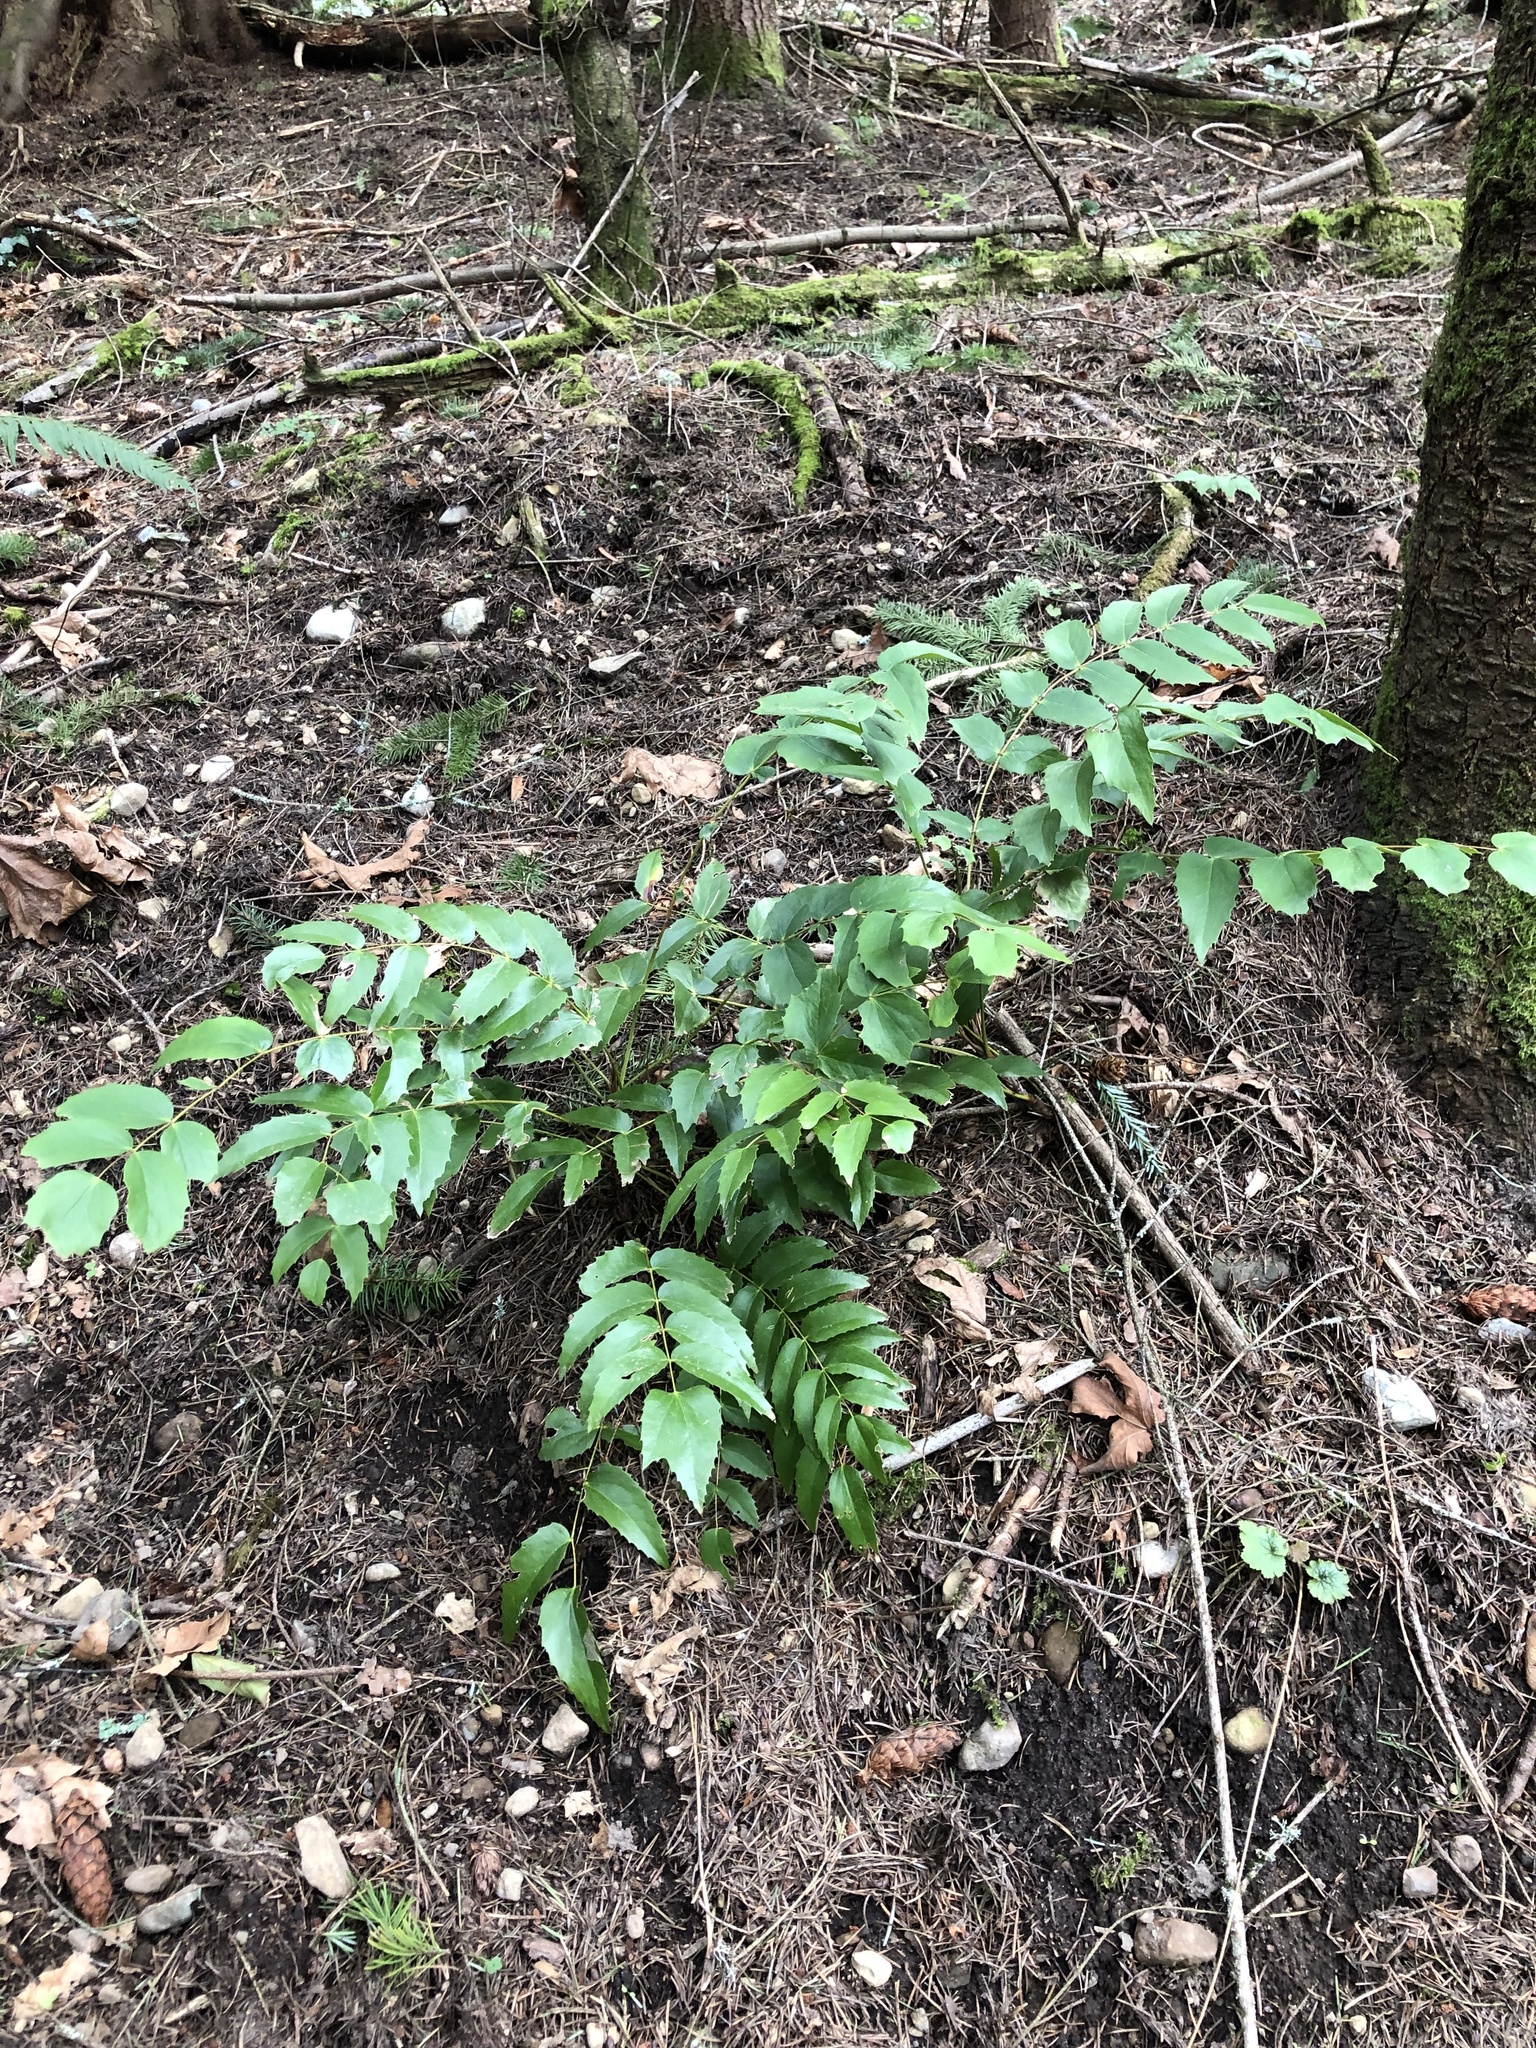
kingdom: Plantae
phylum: Tracheophyta
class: Magnoliopsida
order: Ranunculales
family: Berberidaceae
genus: Mahonia
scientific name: Mahonia nervosa
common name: Cascade oregon-grape
